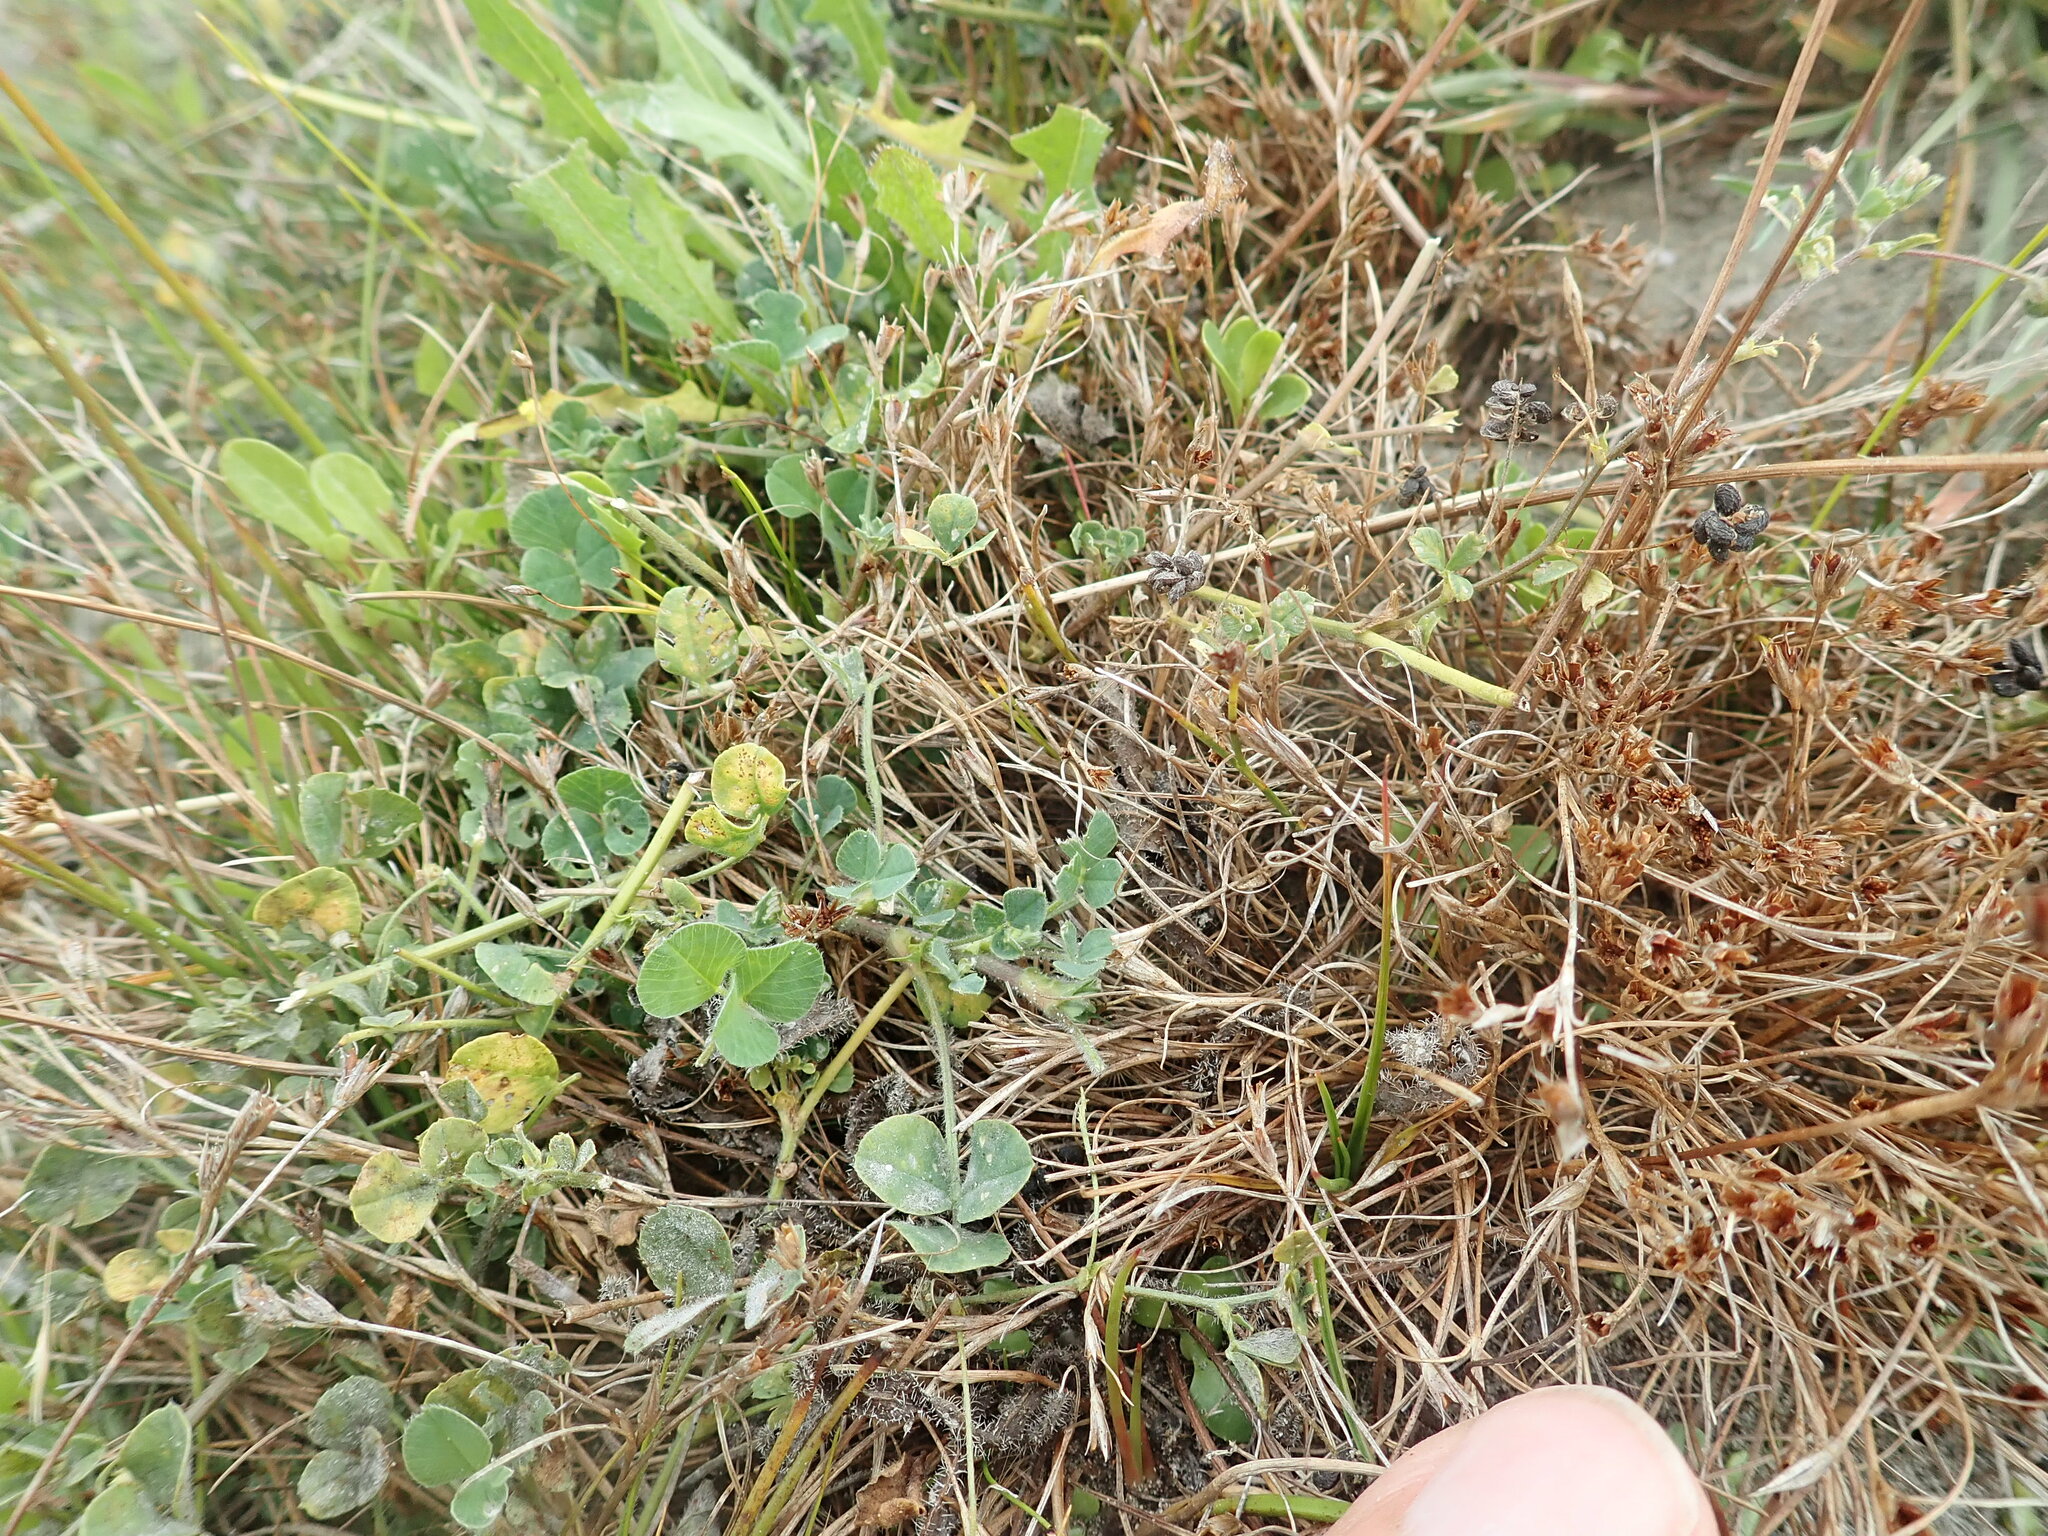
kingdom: Plantae
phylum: Tracheophyta
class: Magnoliopsida
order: Fabales
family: Fabaceae
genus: Medicago
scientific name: Medicago lupulina
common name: Black medick
